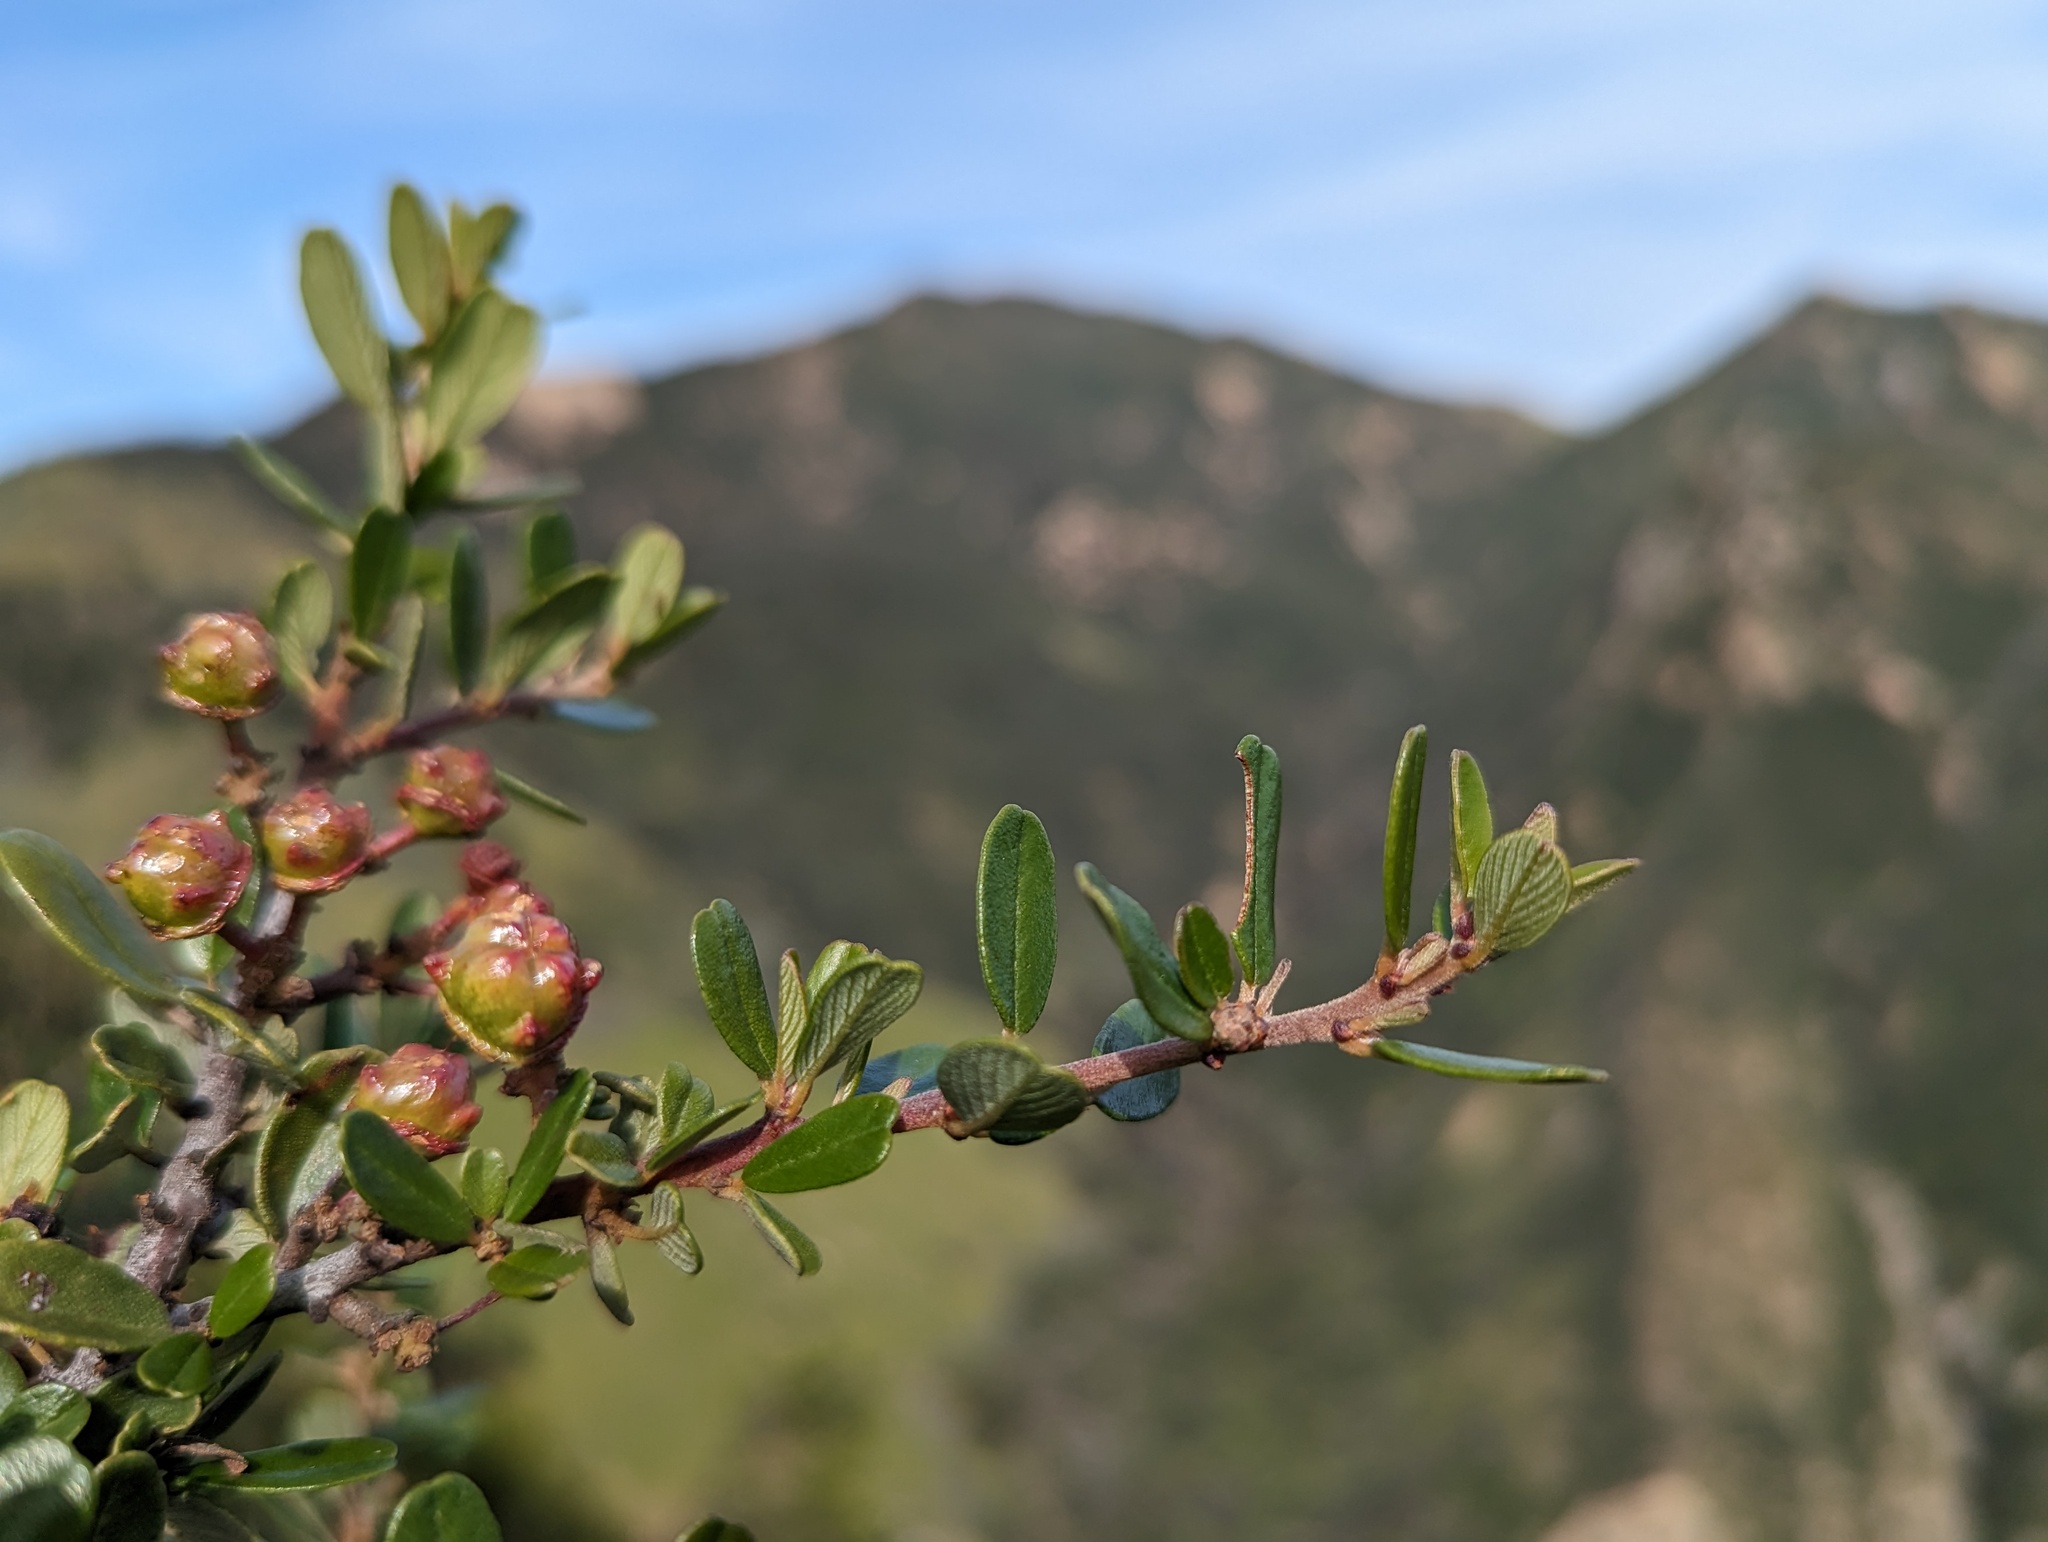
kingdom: Plantae
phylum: Tracheophyta
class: Magnoliopsida
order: Rosales
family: Rhamnaceae
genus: Ceanothus
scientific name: Ceanothus megacarpus
